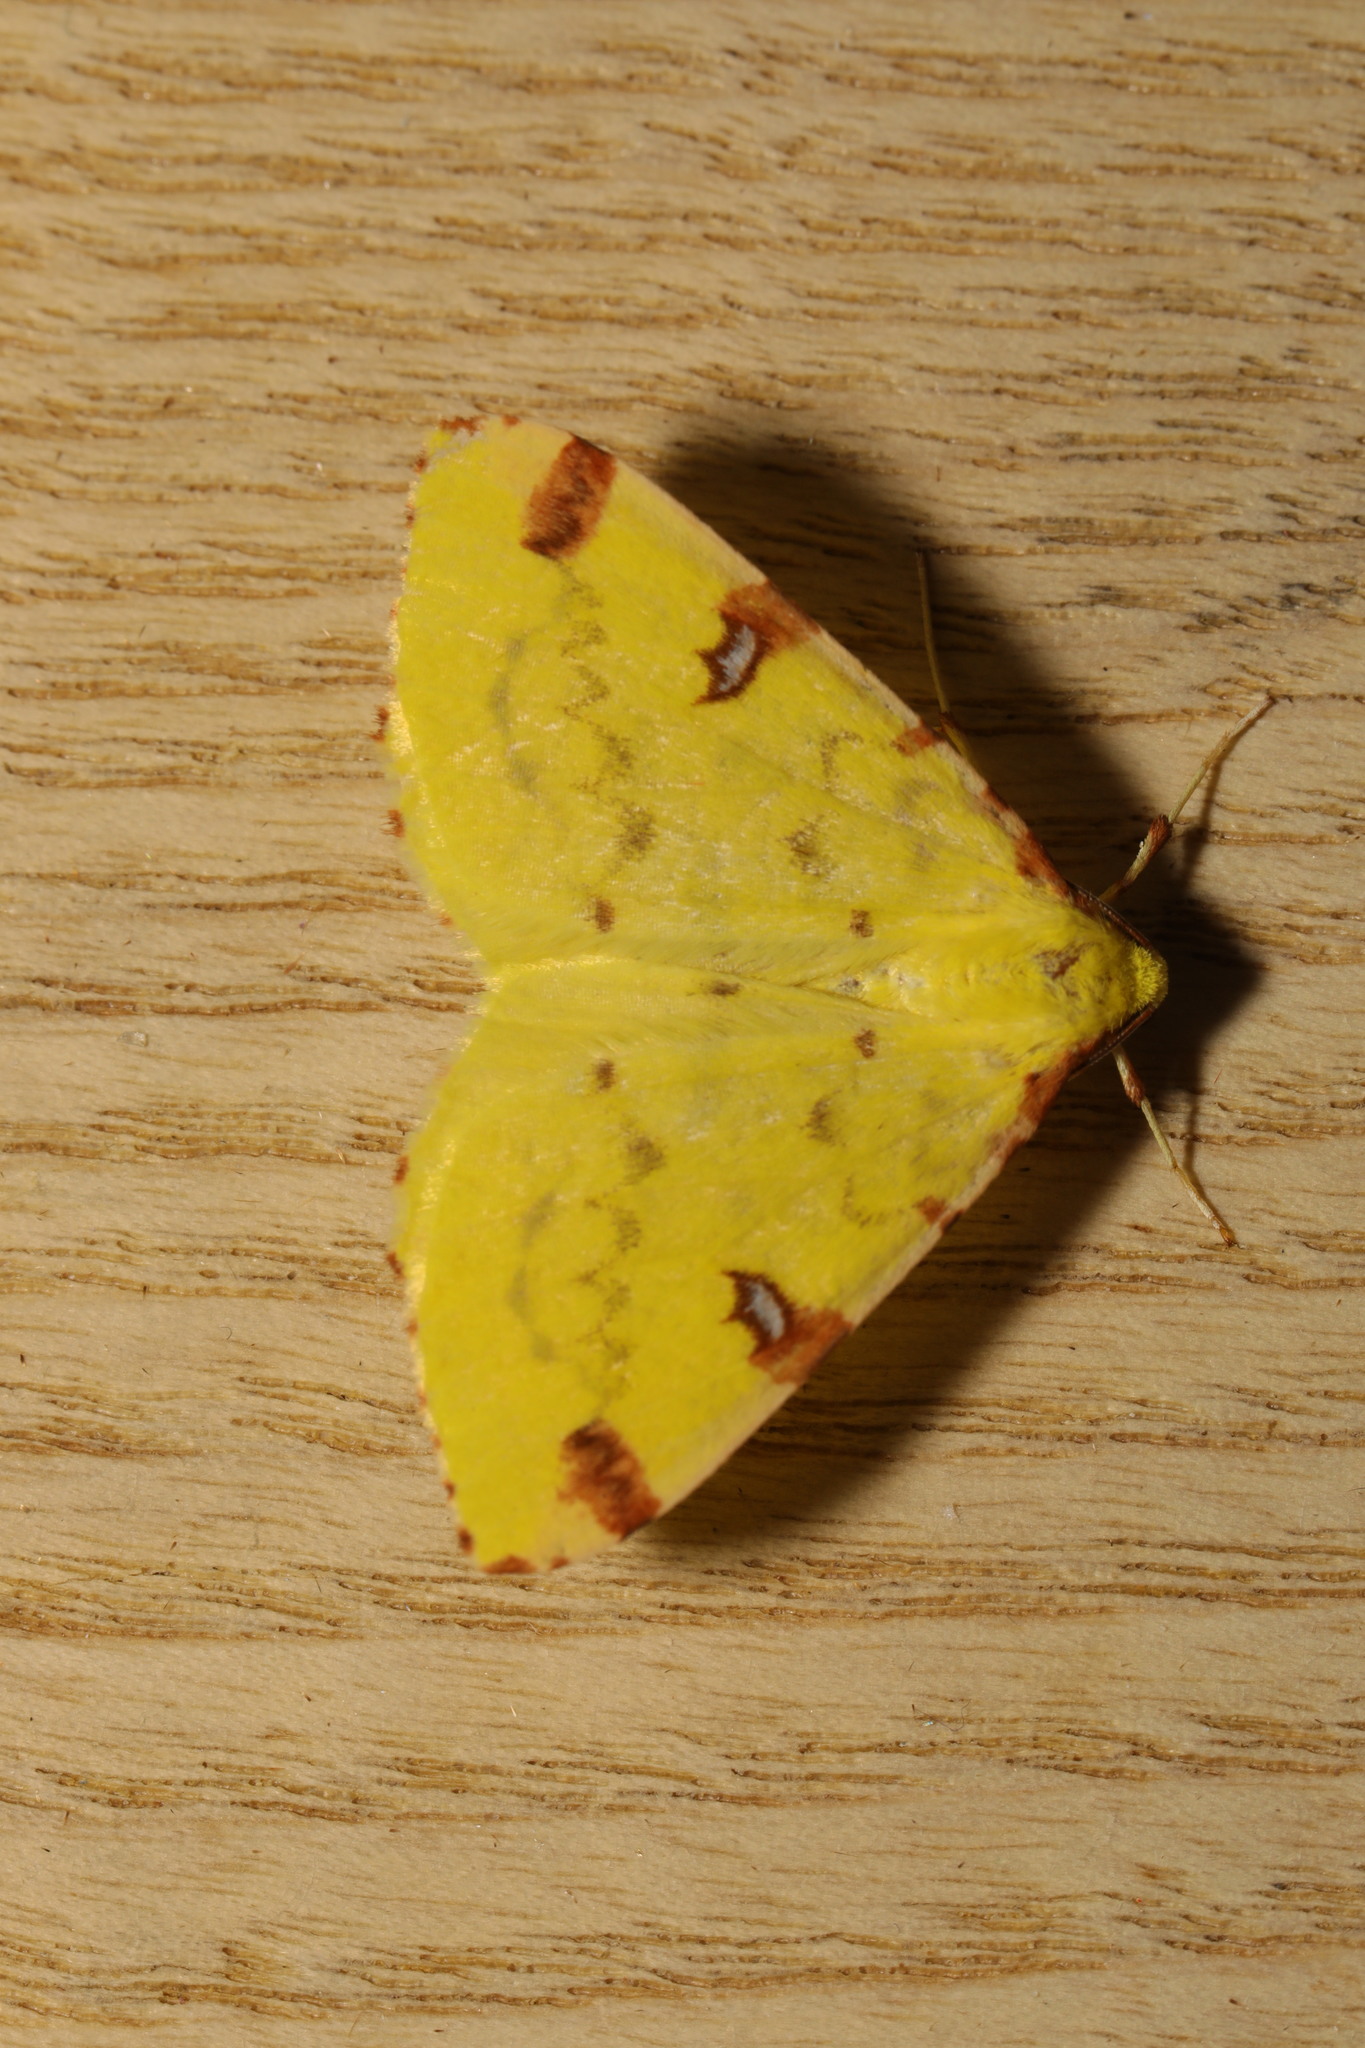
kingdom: Animalia
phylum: Arthropoda
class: Insecta
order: Lepidoptera
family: Geometridae
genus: Opisthograptis
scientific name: Opisthograptis luteolata
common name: Brimstone moth
